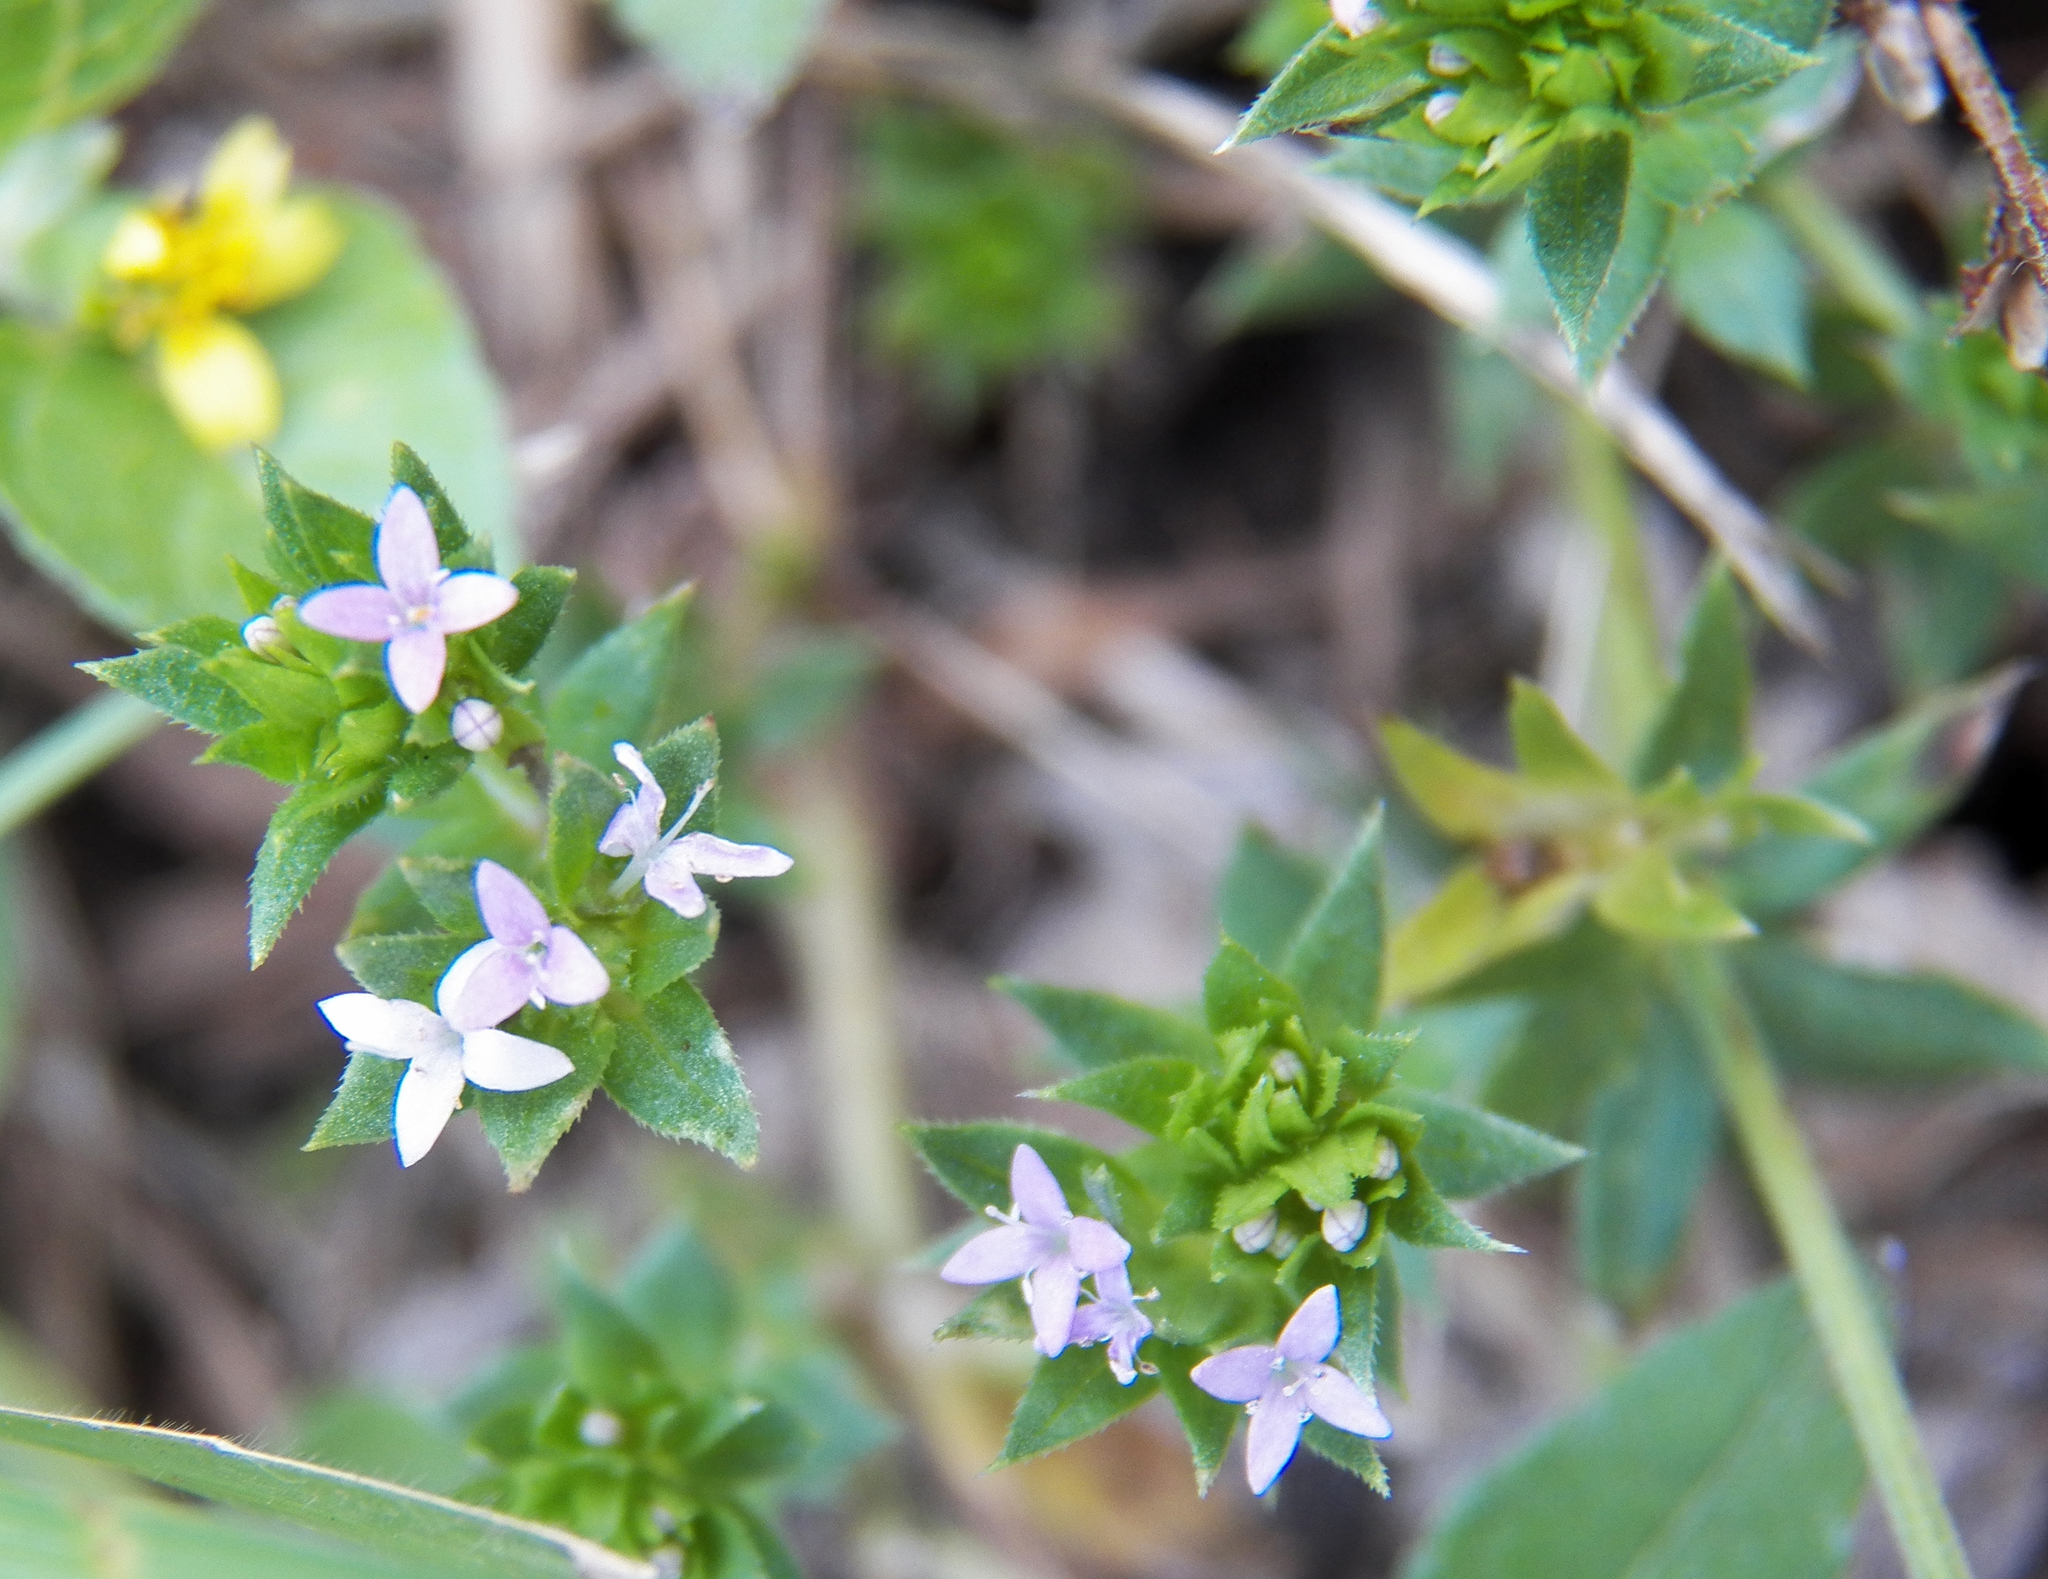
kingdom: Plantae
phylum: Tracheophyta
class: Magnoliopsida
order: Gentianales
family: Rubiaceae
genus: Sherardia
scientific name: Sherardia arvensis
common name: Field madder
